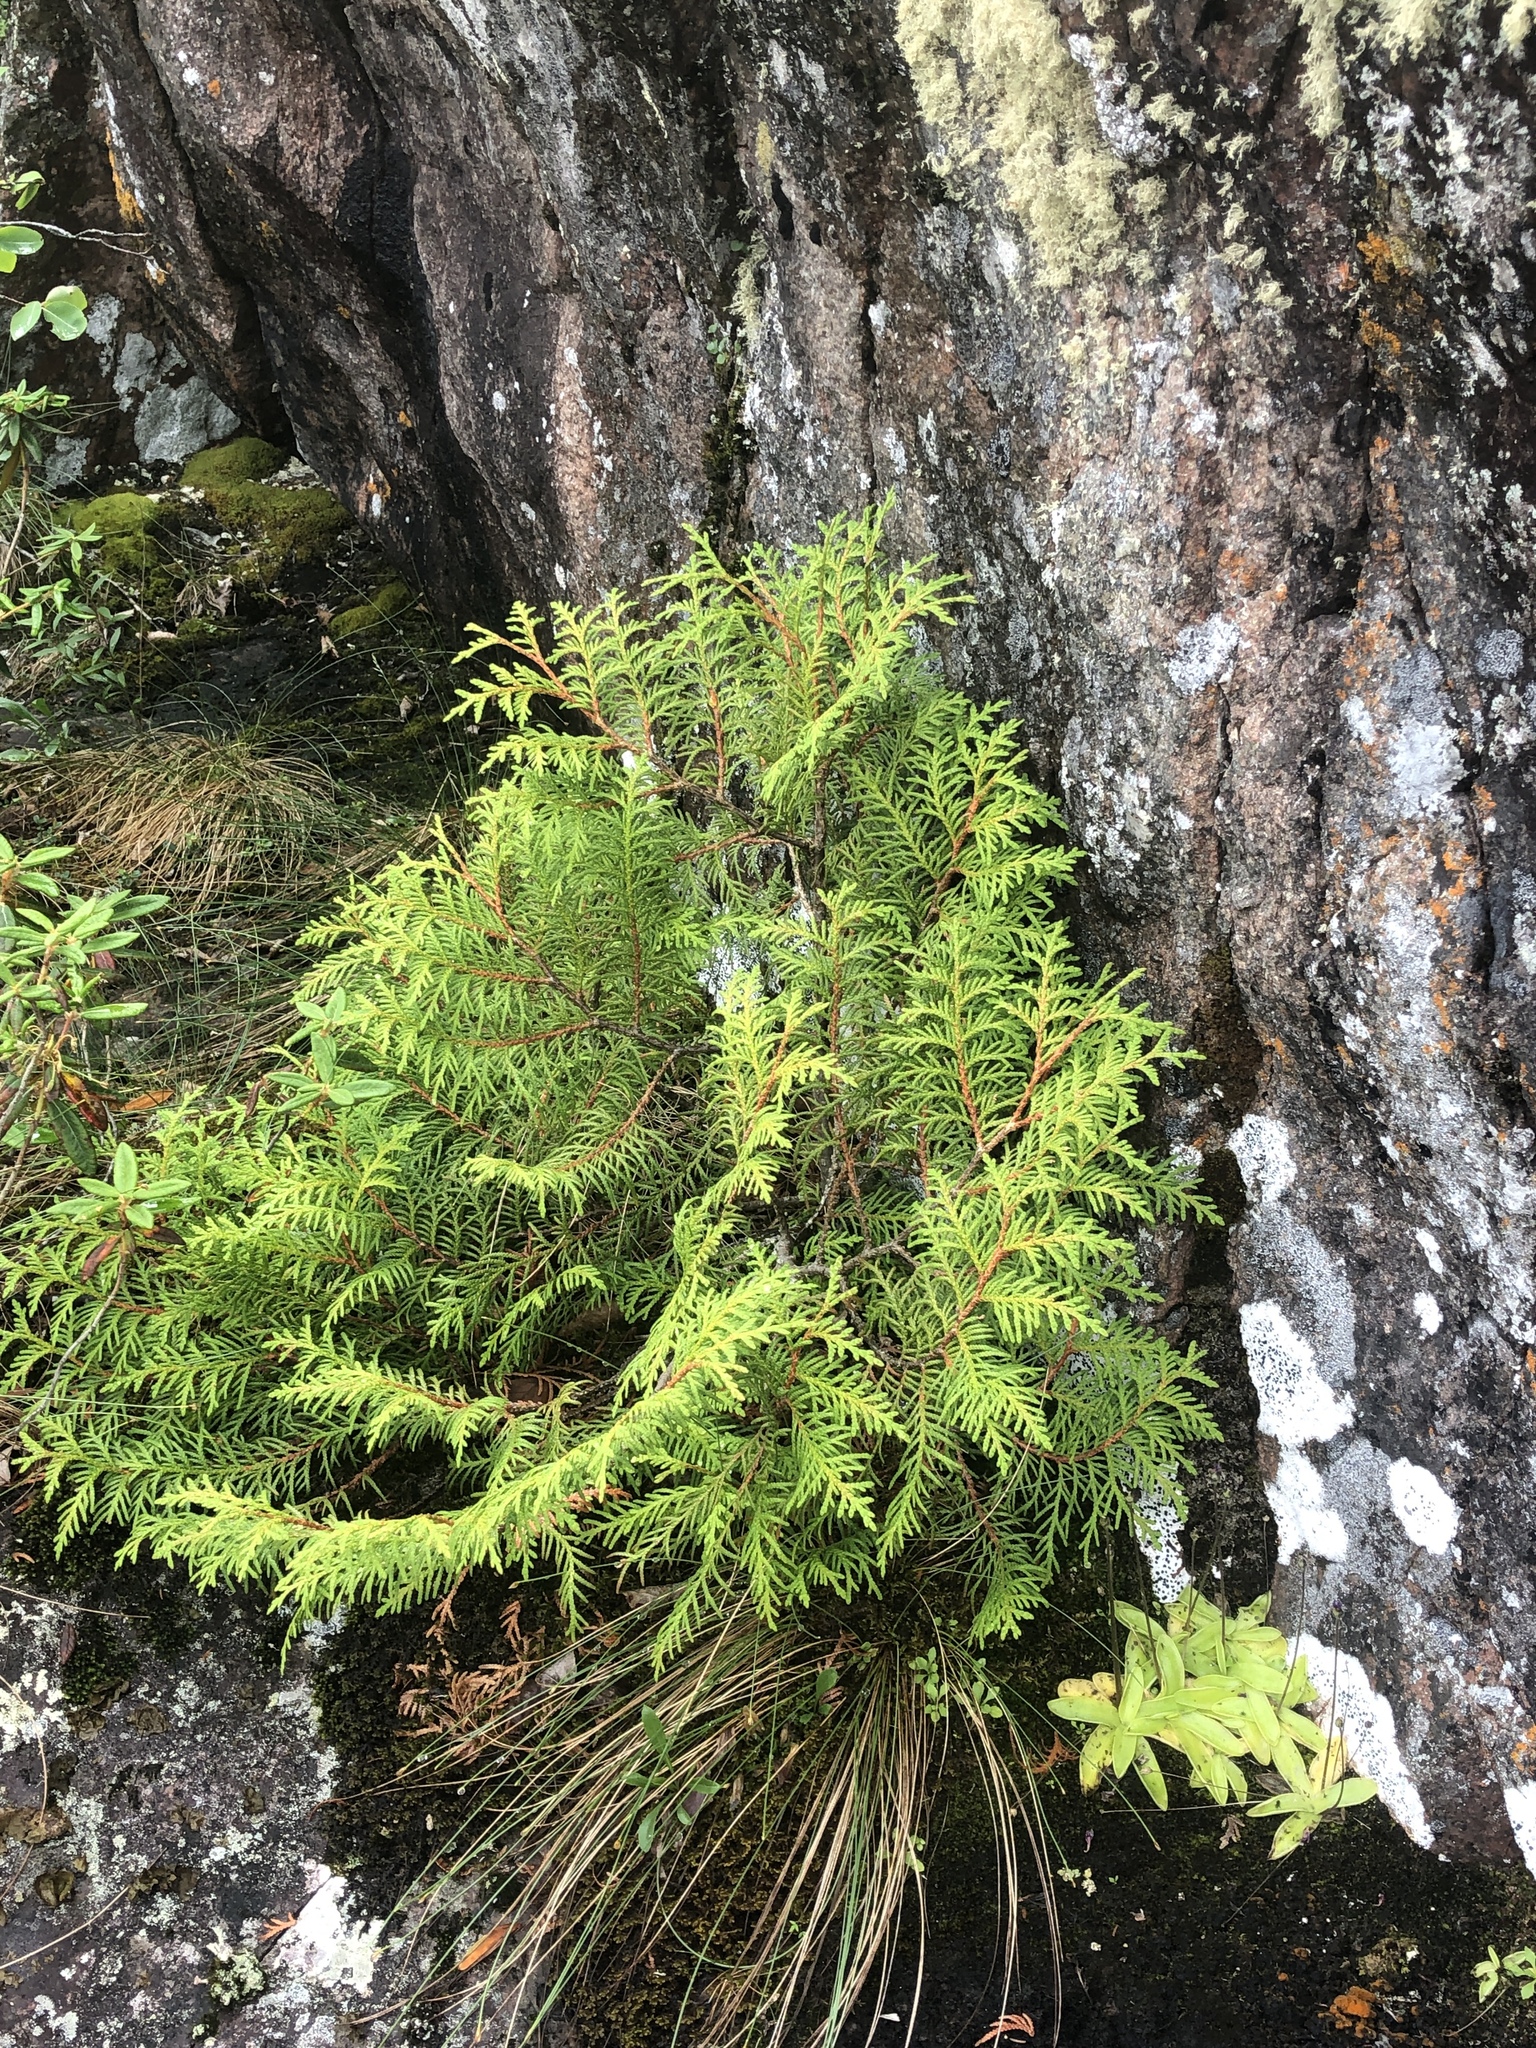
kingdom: Plantae
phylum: Tracheophyta
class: Pinopsida
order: Pinales
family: Cupressaceae
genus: Thuja
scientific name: Thuja occidentalis
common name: Northern white-cedar
